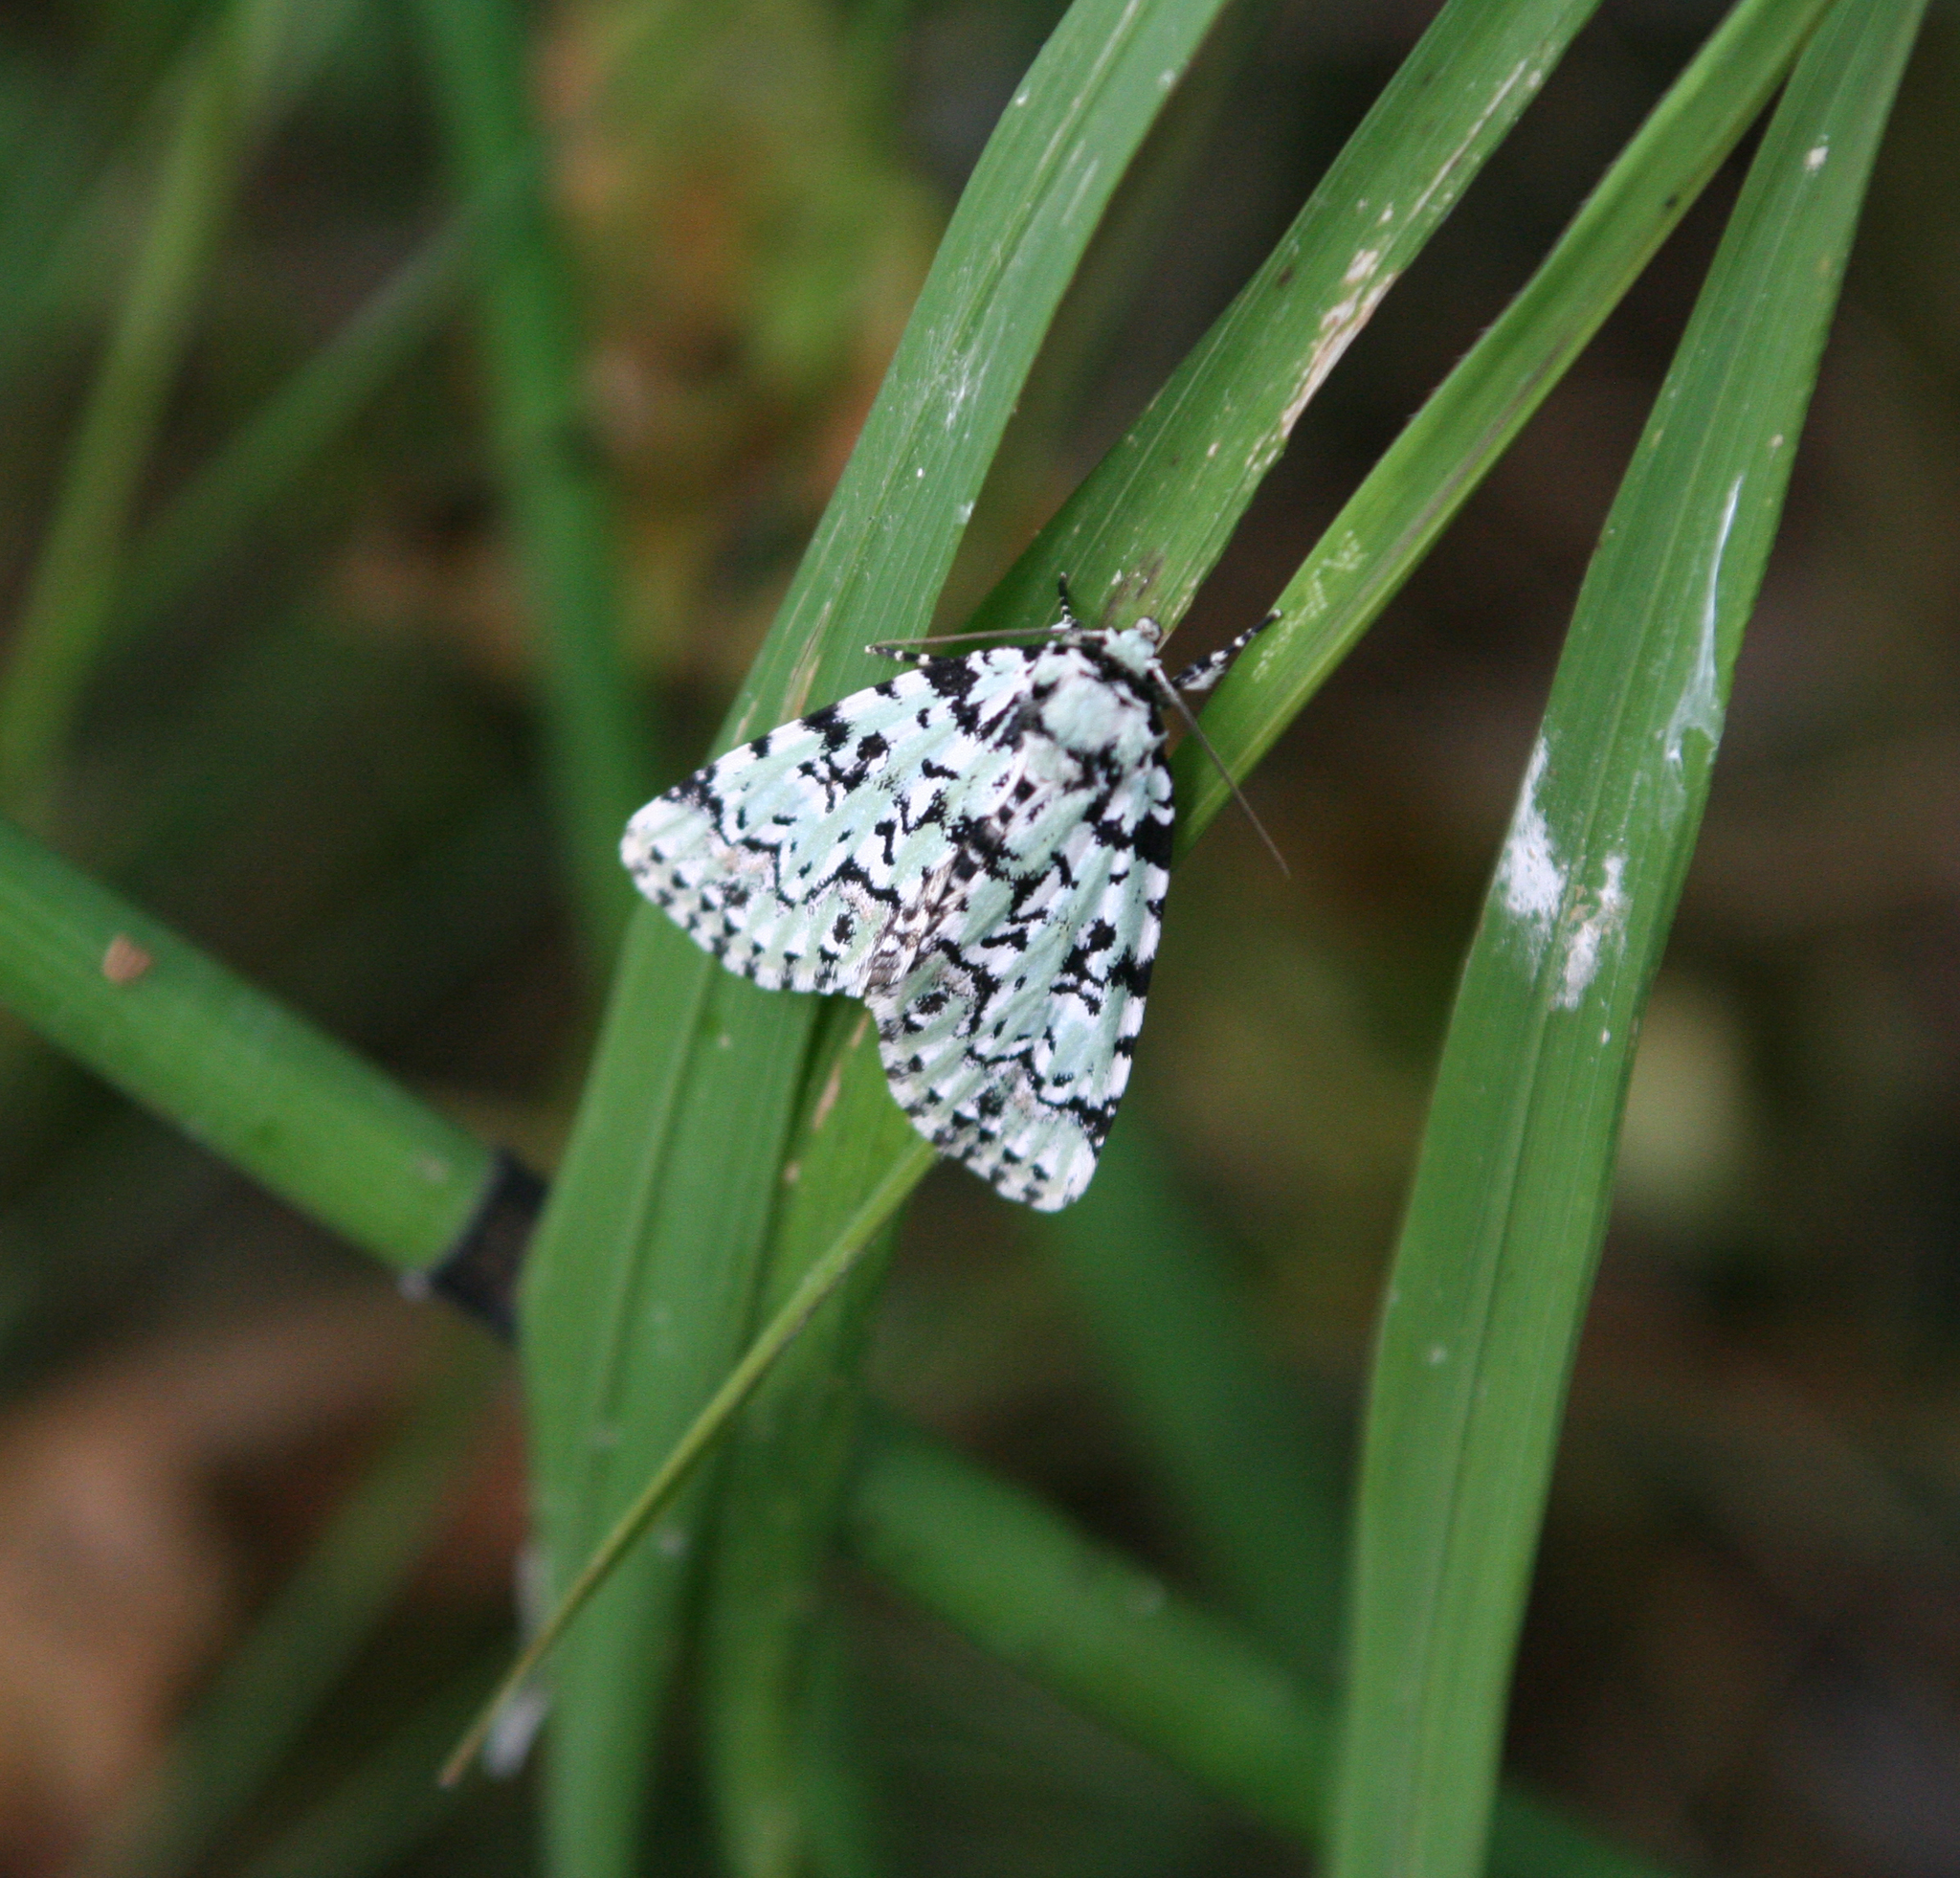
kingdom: Animalia
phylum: Arthropoda
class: Insecta
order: Lepidoptera
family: Noctuidae
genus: Moma
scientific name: Moma alpium
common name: Scarce merveille du jour
